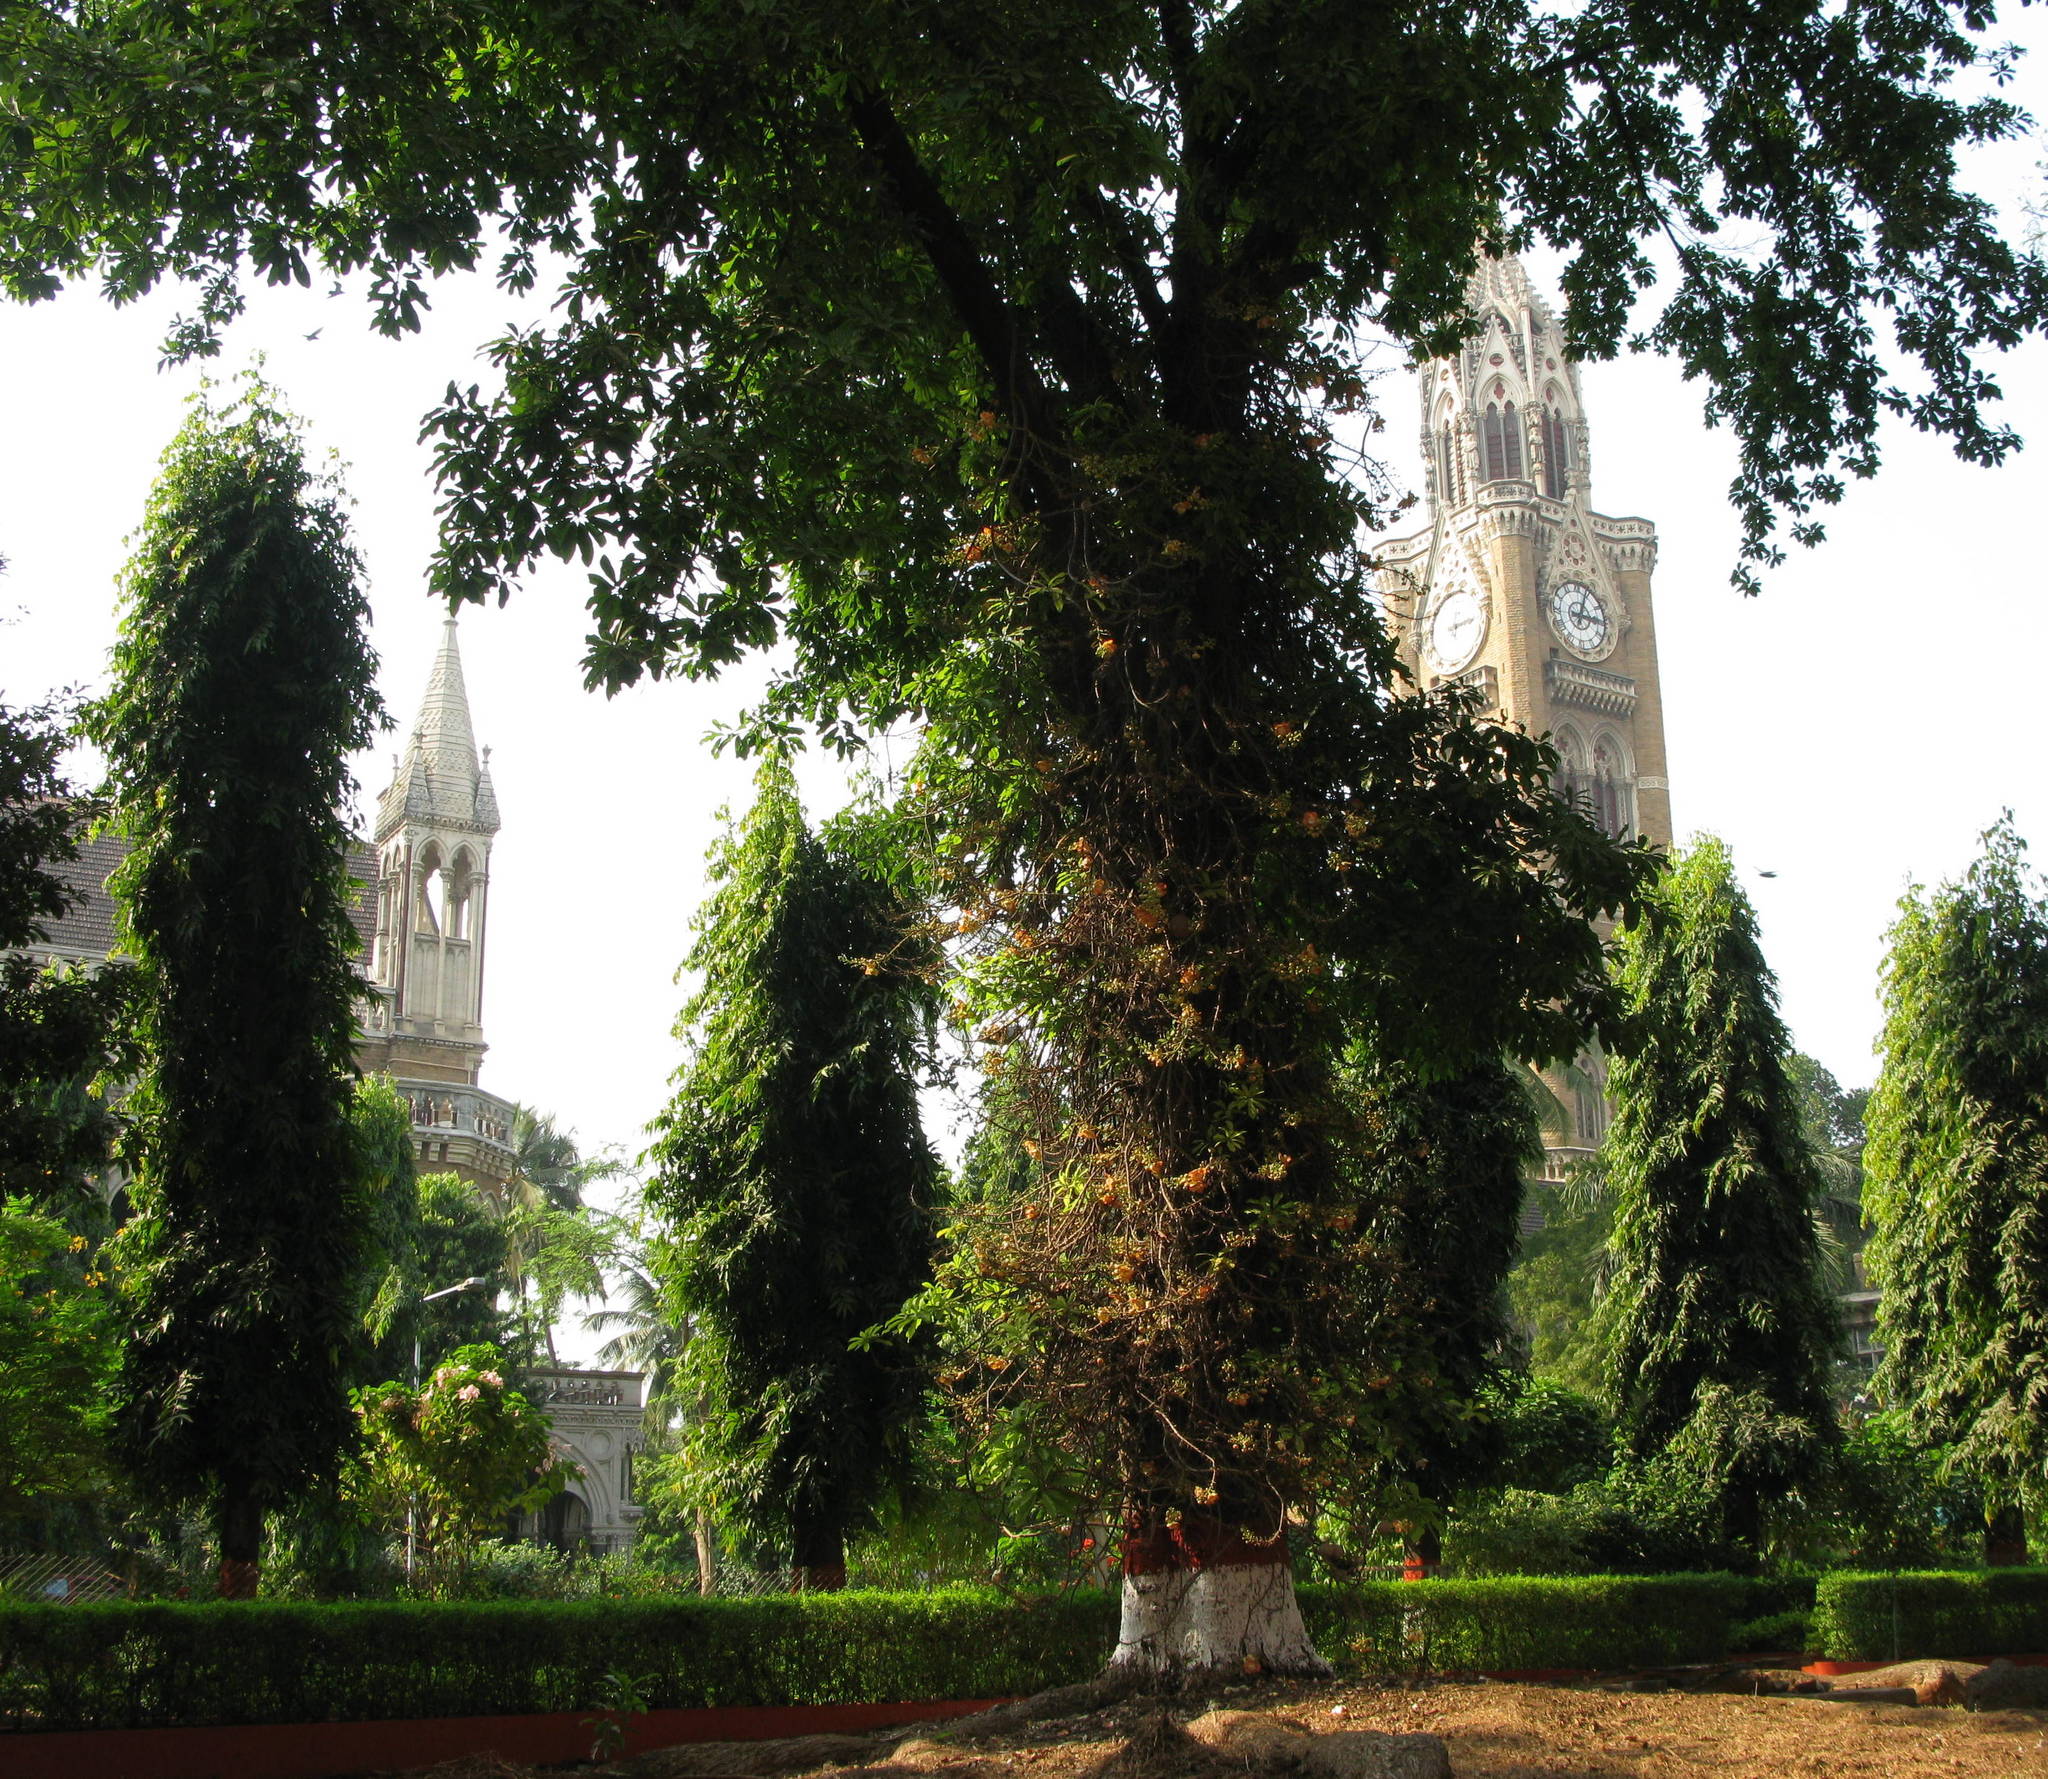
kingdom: Plantae
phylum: Tracheophyta
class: Magnoliopsida
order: Ericales
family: Lecythidaceae
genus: Couroupita
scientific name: Couroupita guianensis
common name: Cannonball tree
